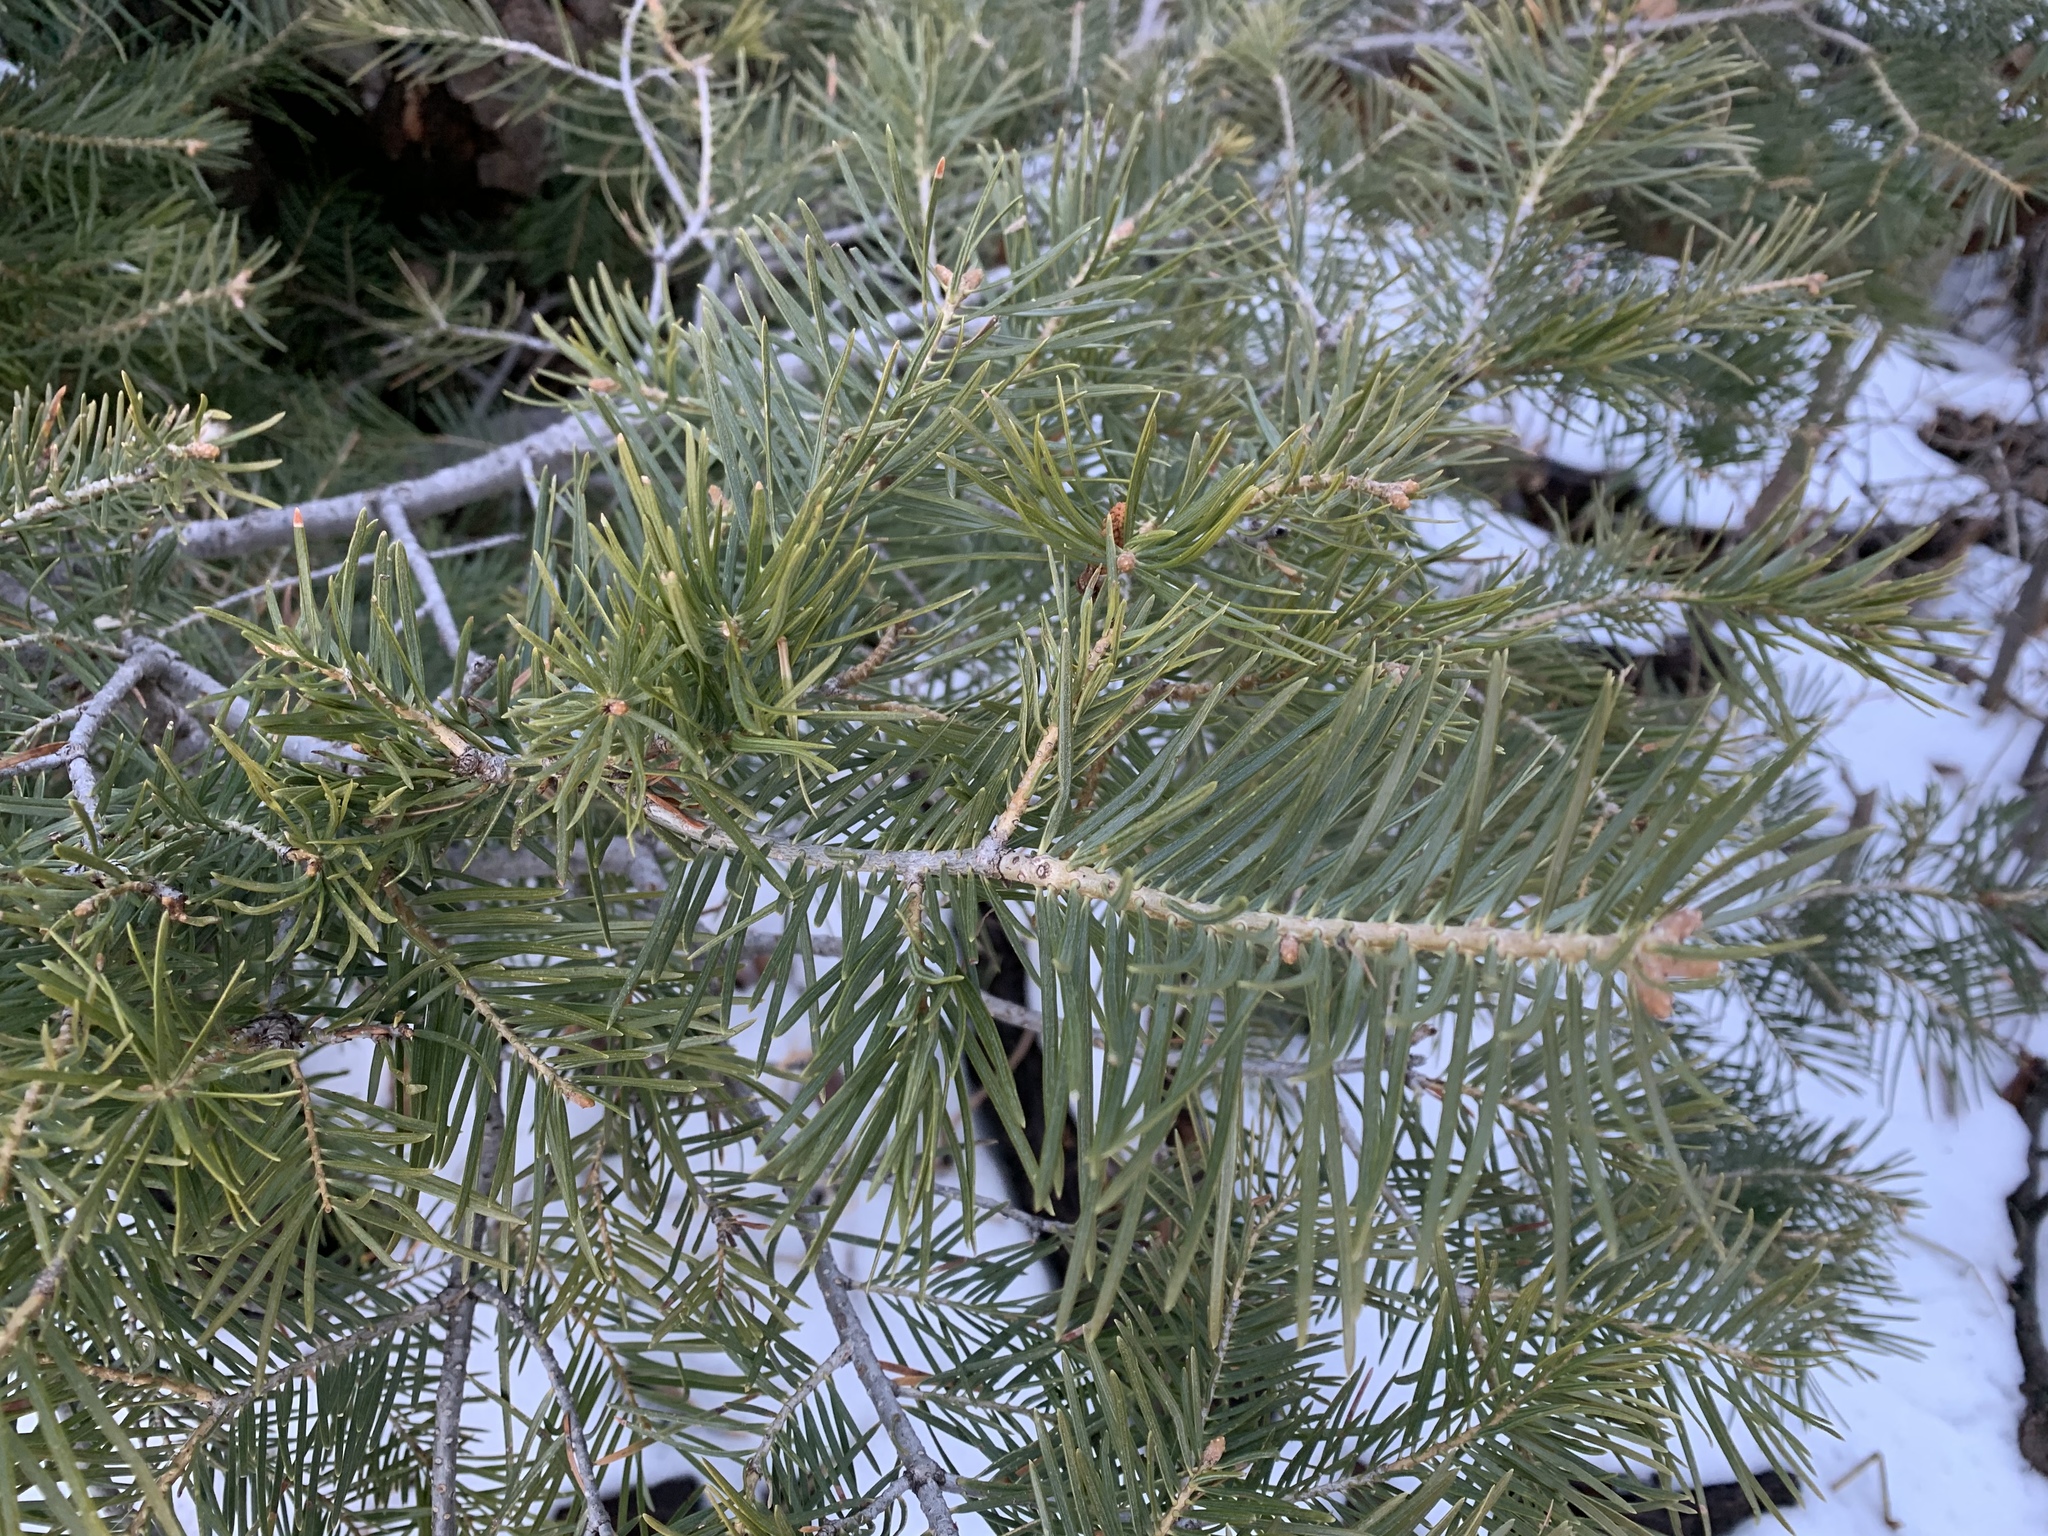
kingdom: Plantae
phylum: Tracheophyta
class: Pinopsida
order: Pinales
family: Pinaceae
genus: Abies
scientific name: Abies concolor
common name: Colorado fir
